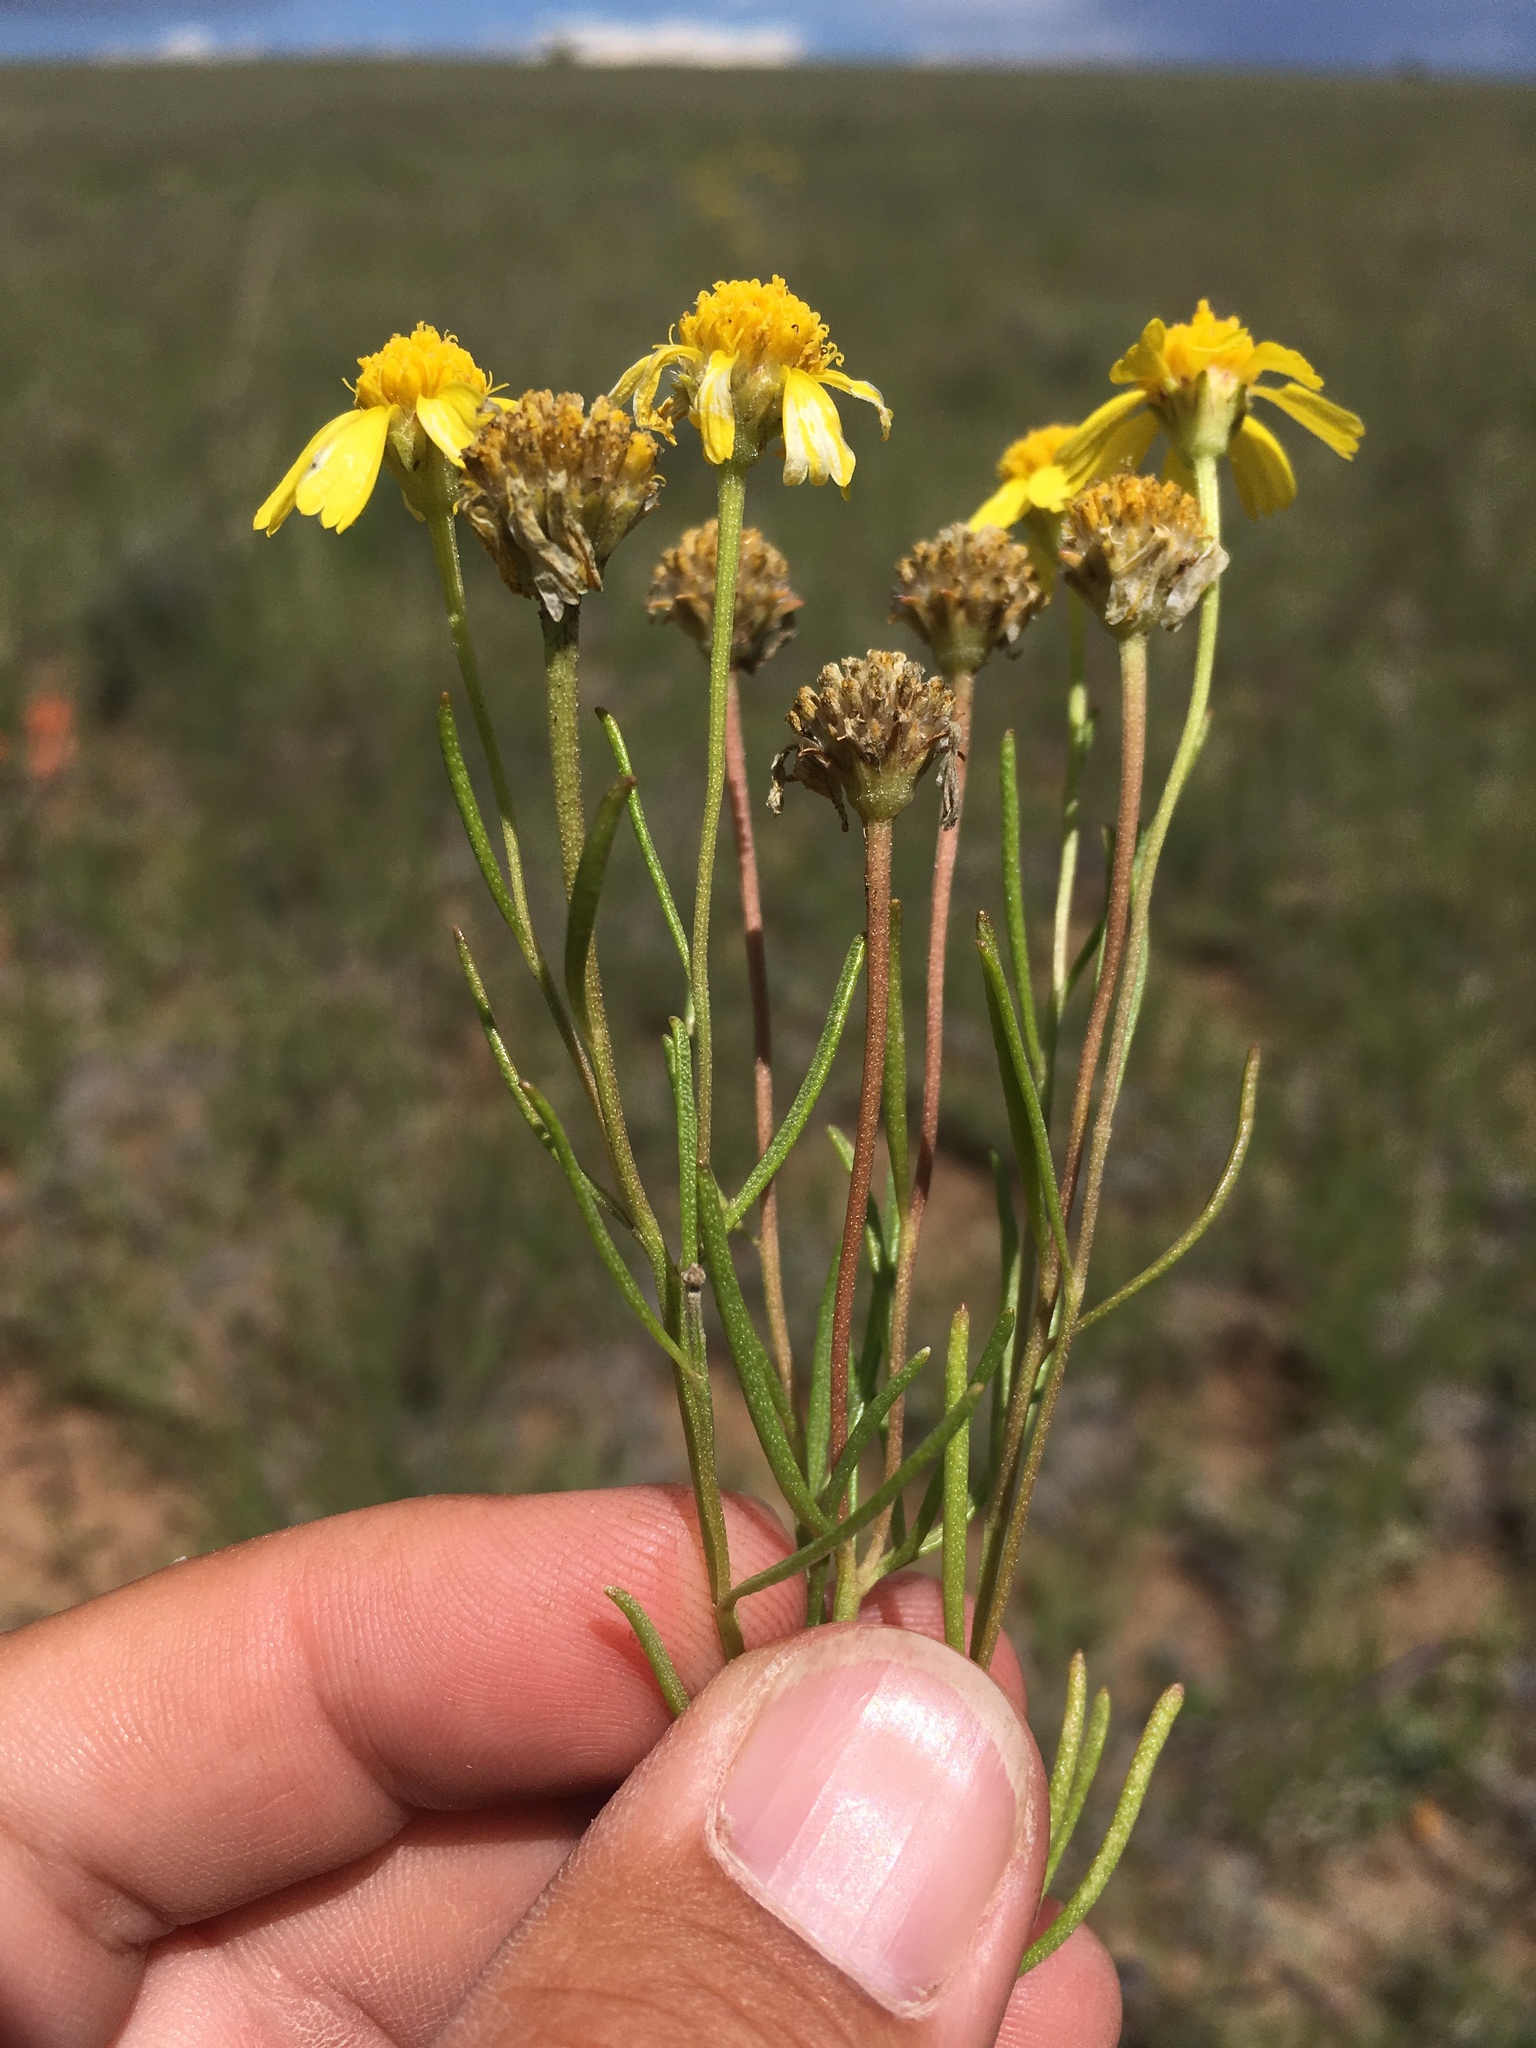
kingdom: Plantae
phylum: Tracheophyta
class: Magnoliopsida
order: Asterales
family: Asteraceae
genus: Hymenoxys
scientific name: Hymenoxys richardsonii
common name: Pingue rubberweed
